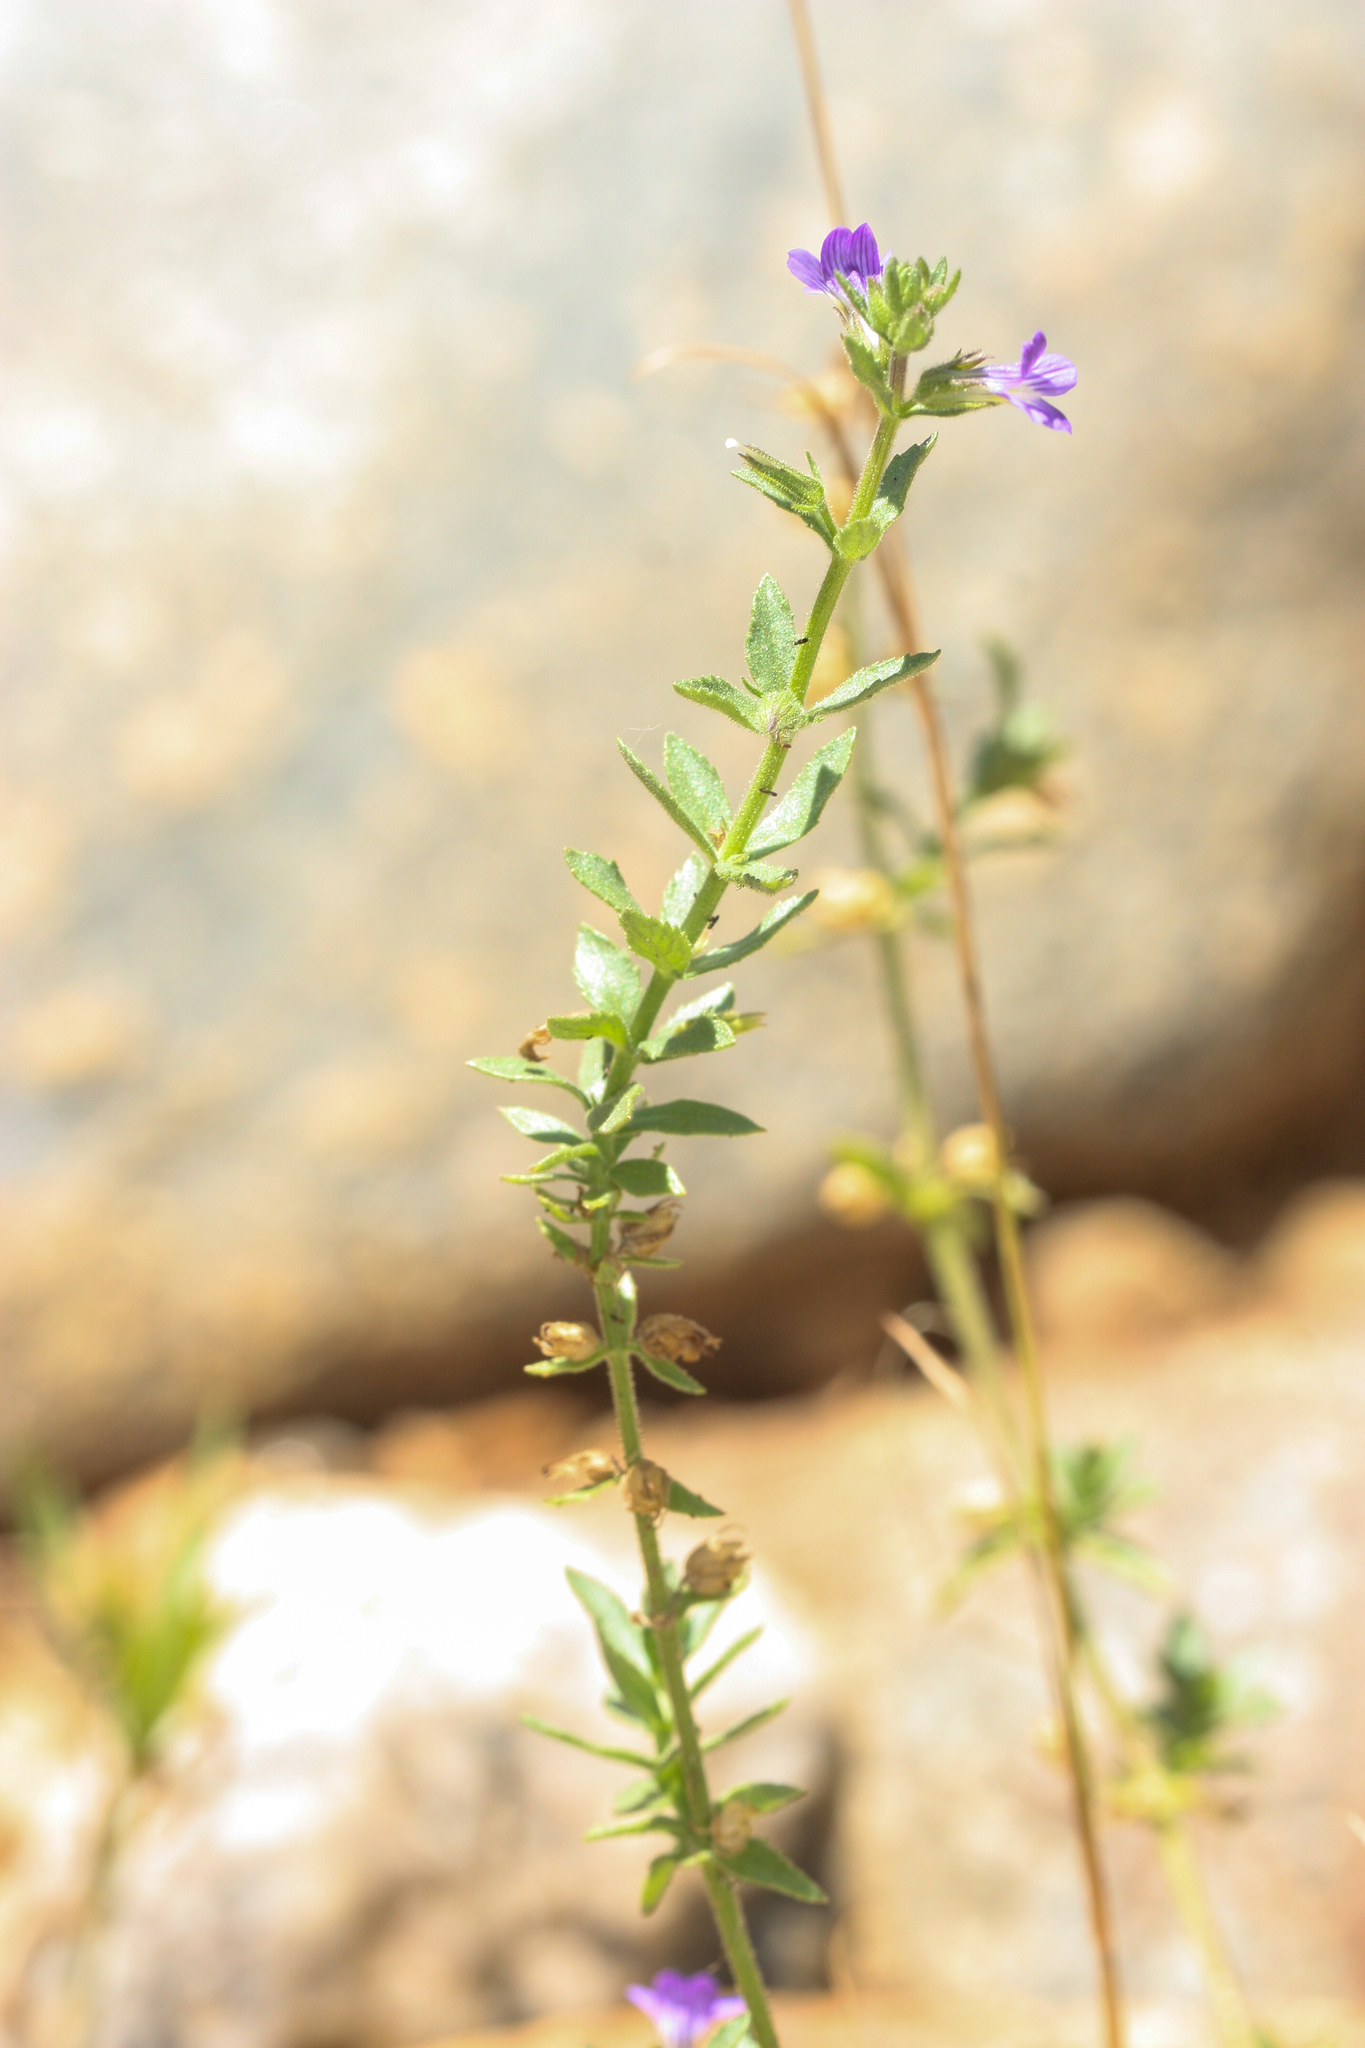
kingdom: Plantae
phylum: Tracheophyta
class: Magnoliopsida
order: Lamiales
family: Plantaginaceae
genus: Stemodia
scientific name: Stemodia durantifolia
